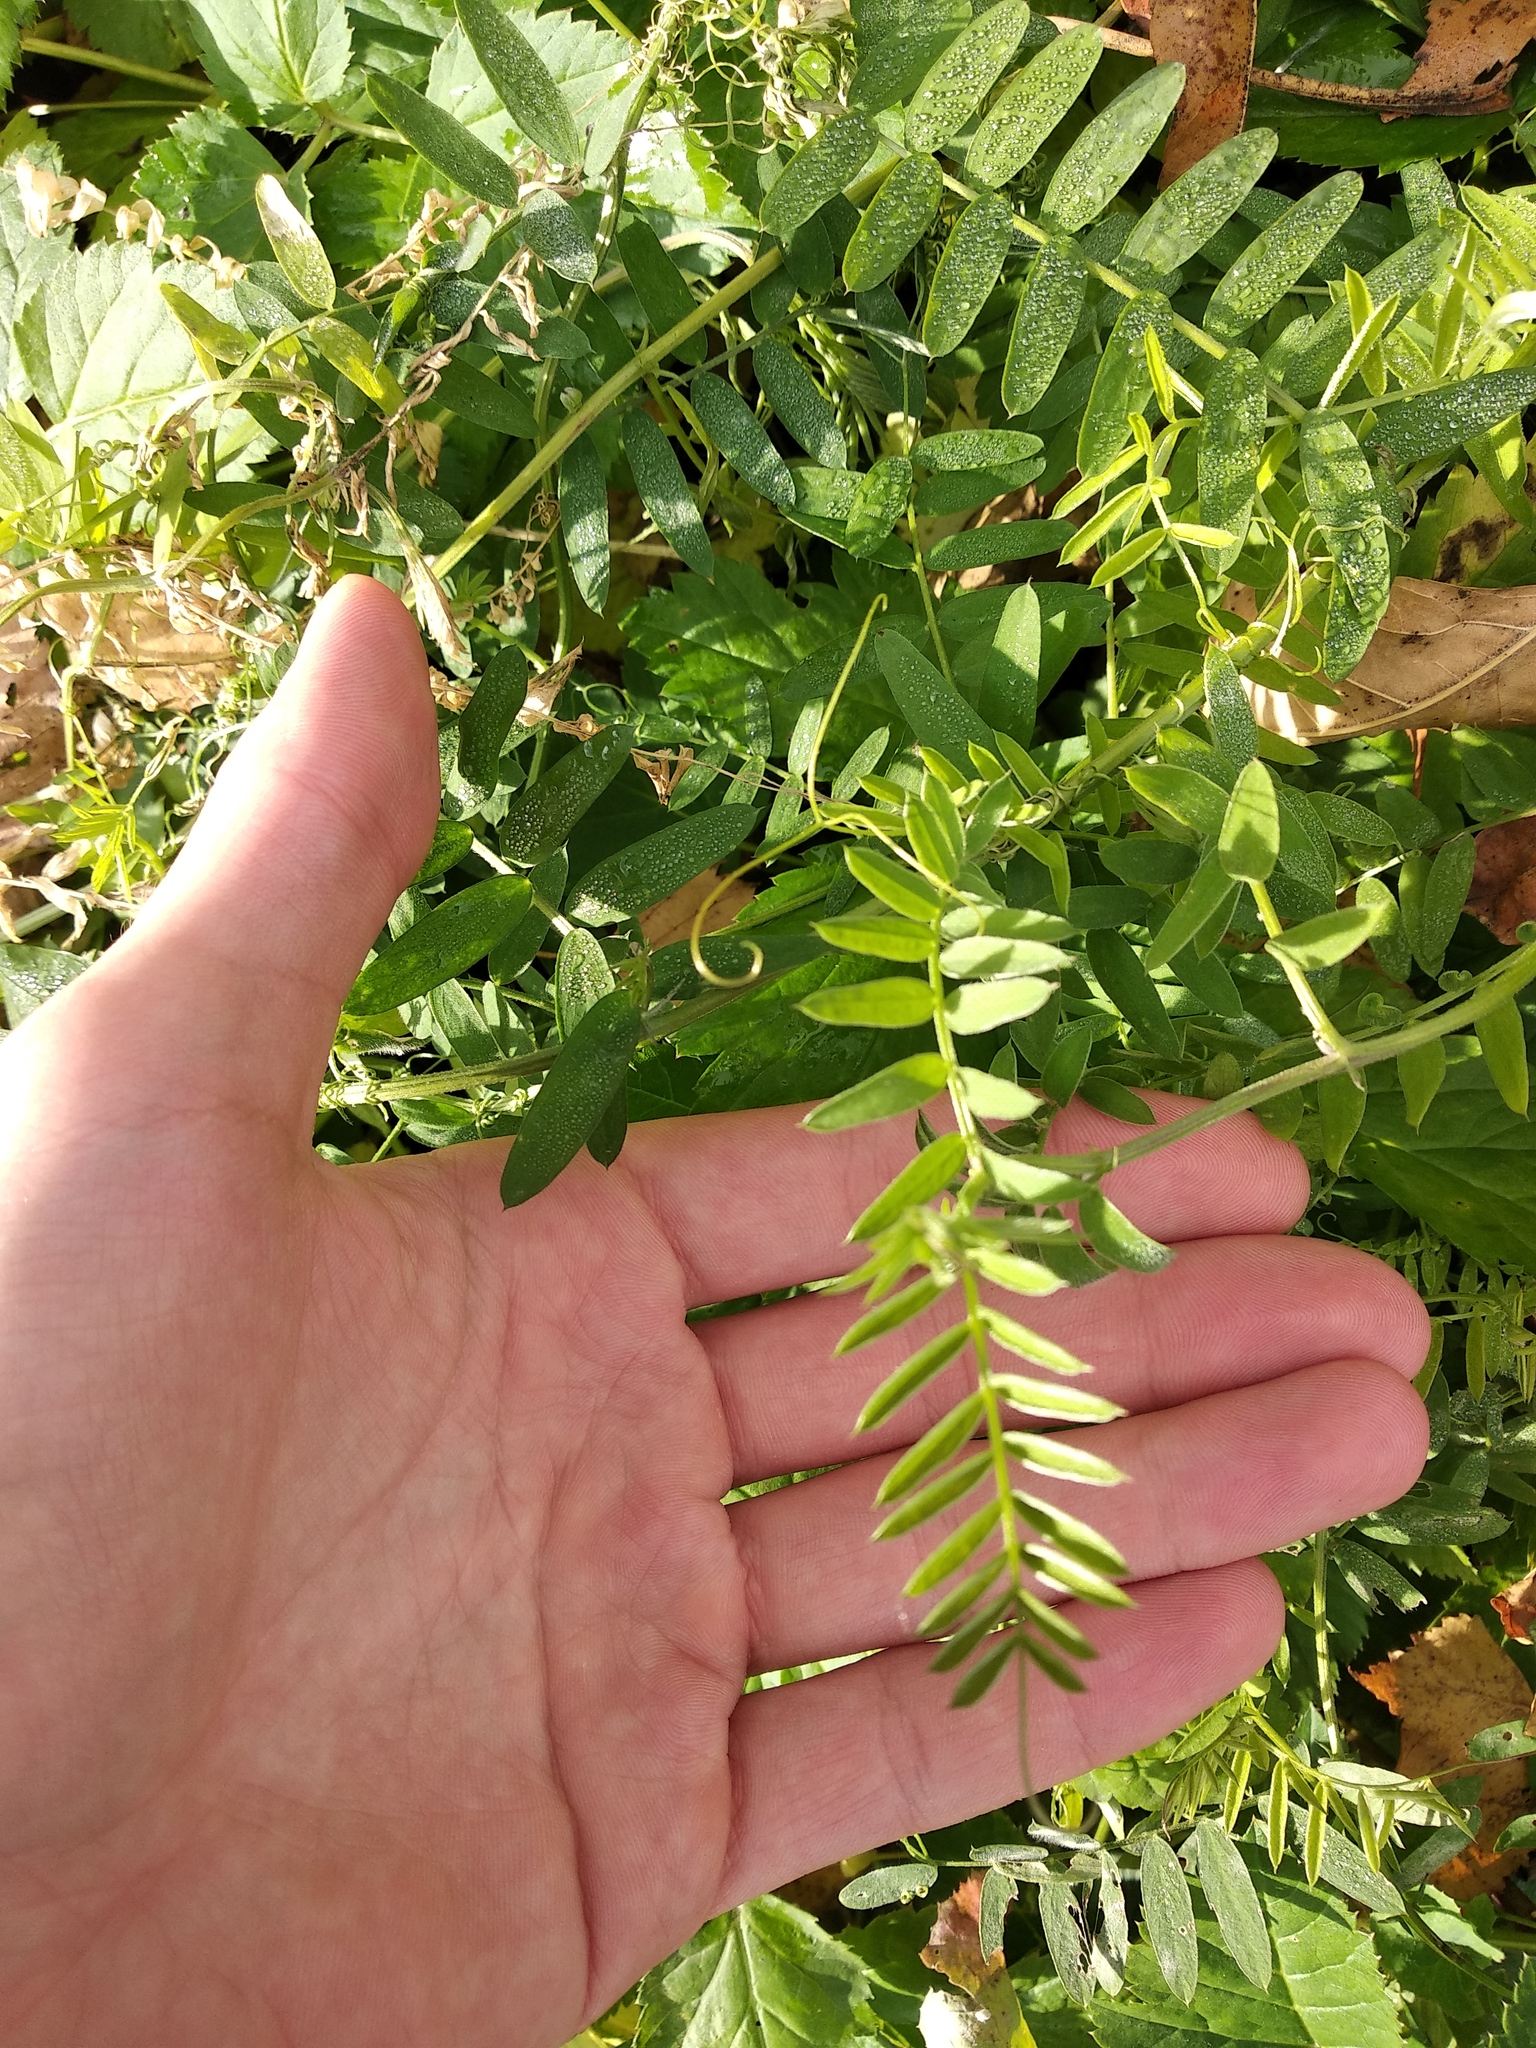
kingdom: Plantae
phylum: Tracheophyta
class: Magnoliopsida
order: Fabales
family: Fabaceae
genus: Vicia
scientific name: Vicia cracca
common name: Bird vetch
